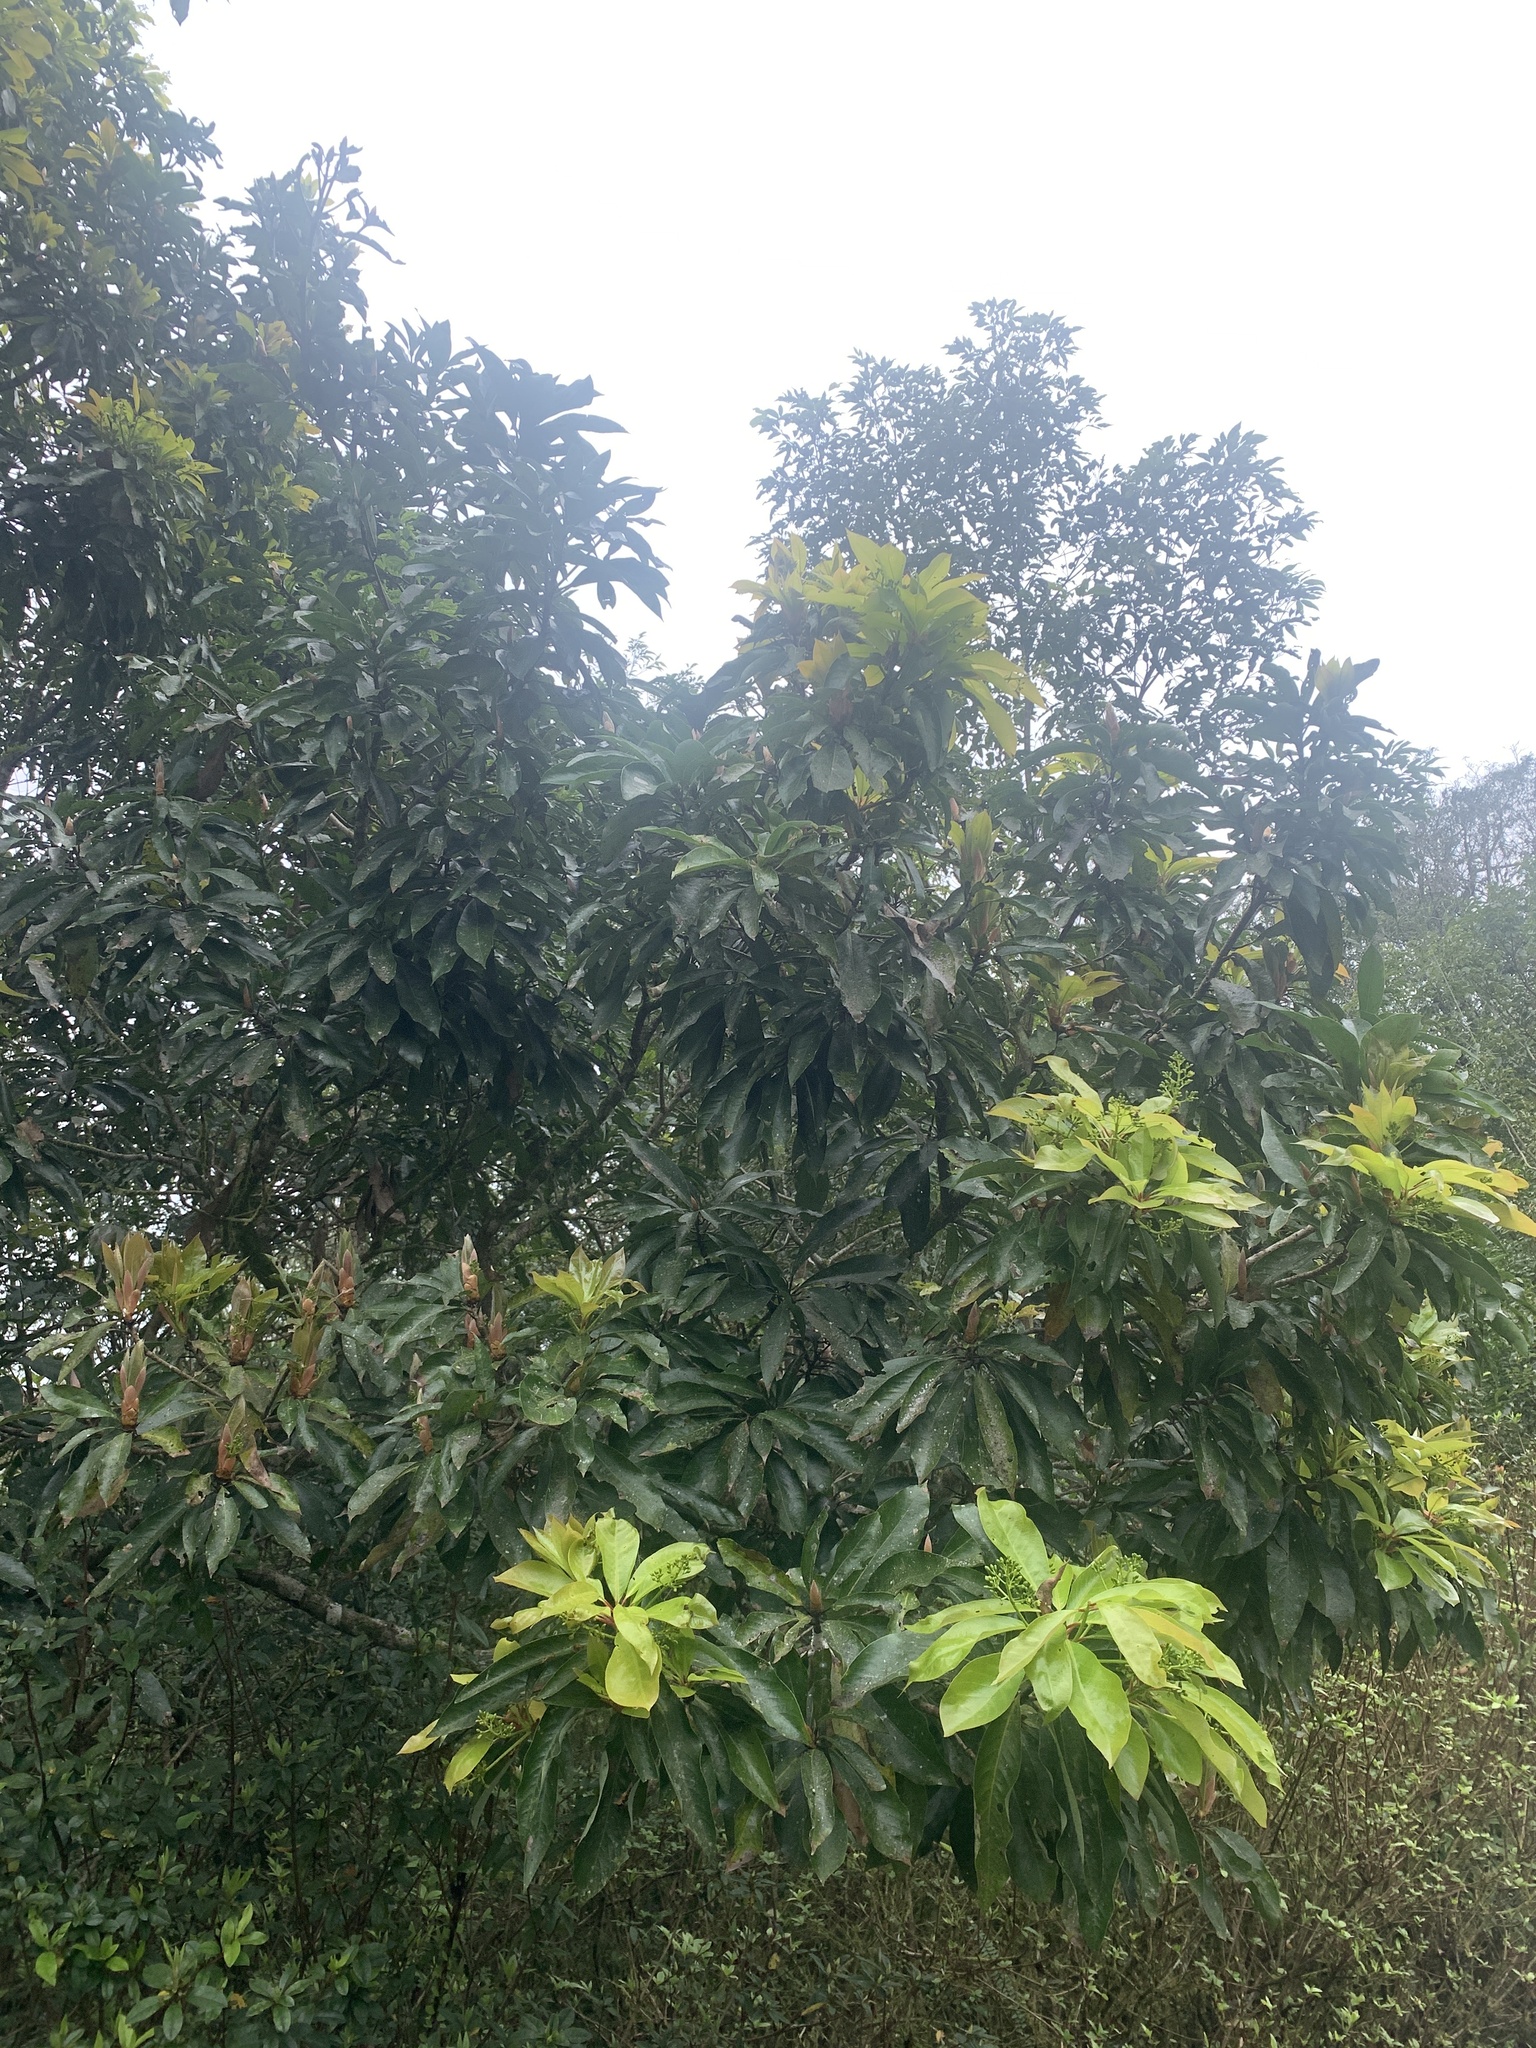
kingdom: Plantae
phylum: Tracheophyta
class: Magnoliopsida
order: Laurales
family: Lauraceae
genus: Machilus
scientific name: Machilus japonica
